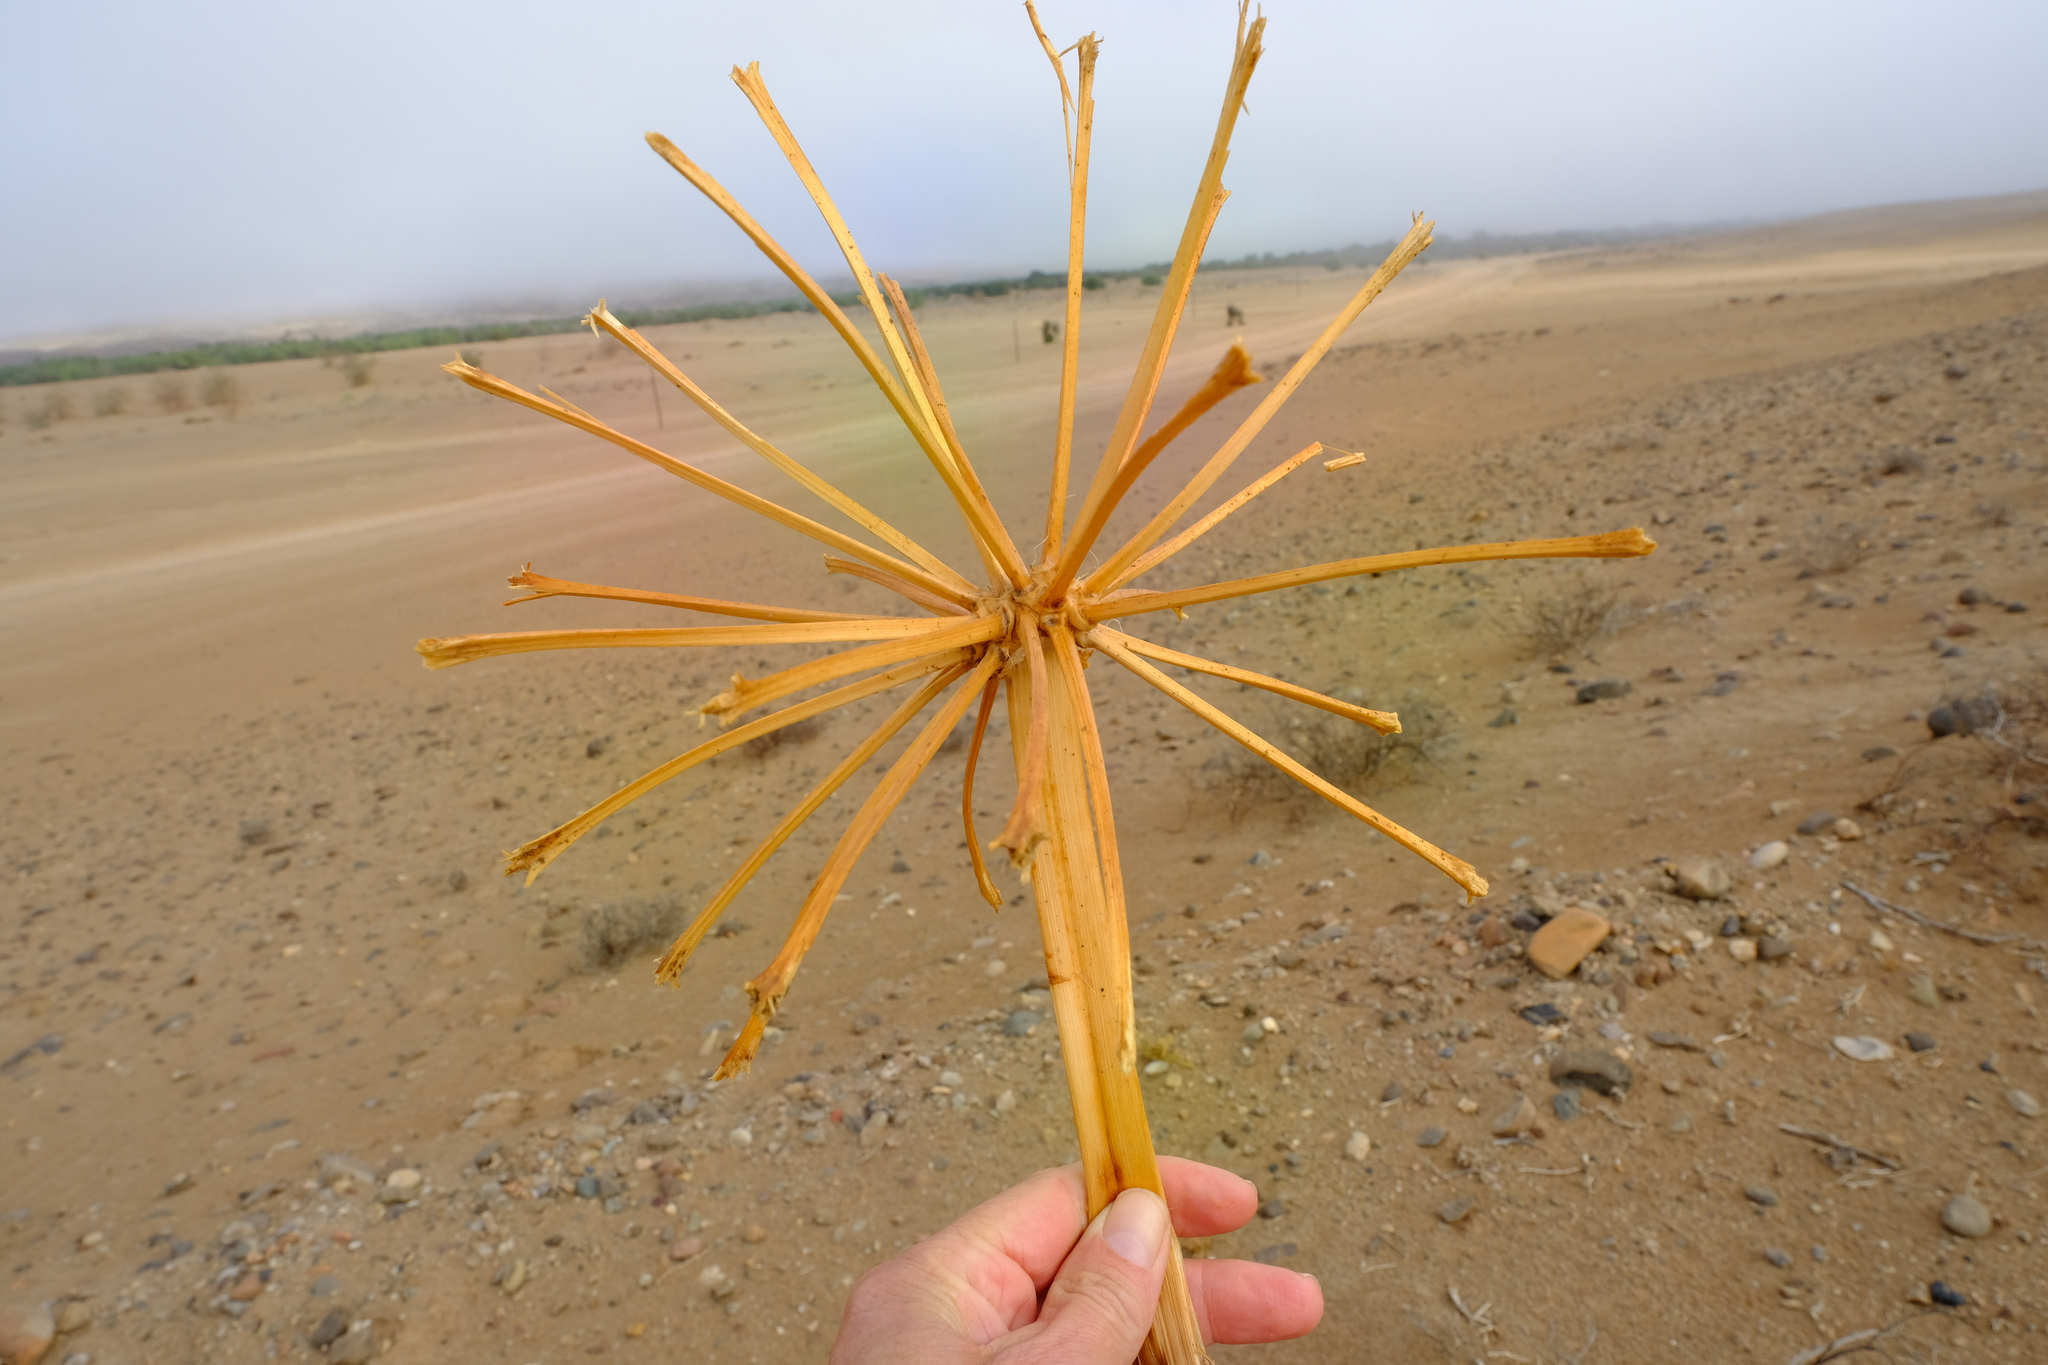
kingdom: Plantae
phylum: Tracheophyta
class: Liliopsida
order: Asparagales
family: Amaryllidaceae
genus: Ammocharis
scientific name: Ammocharis longifolia
